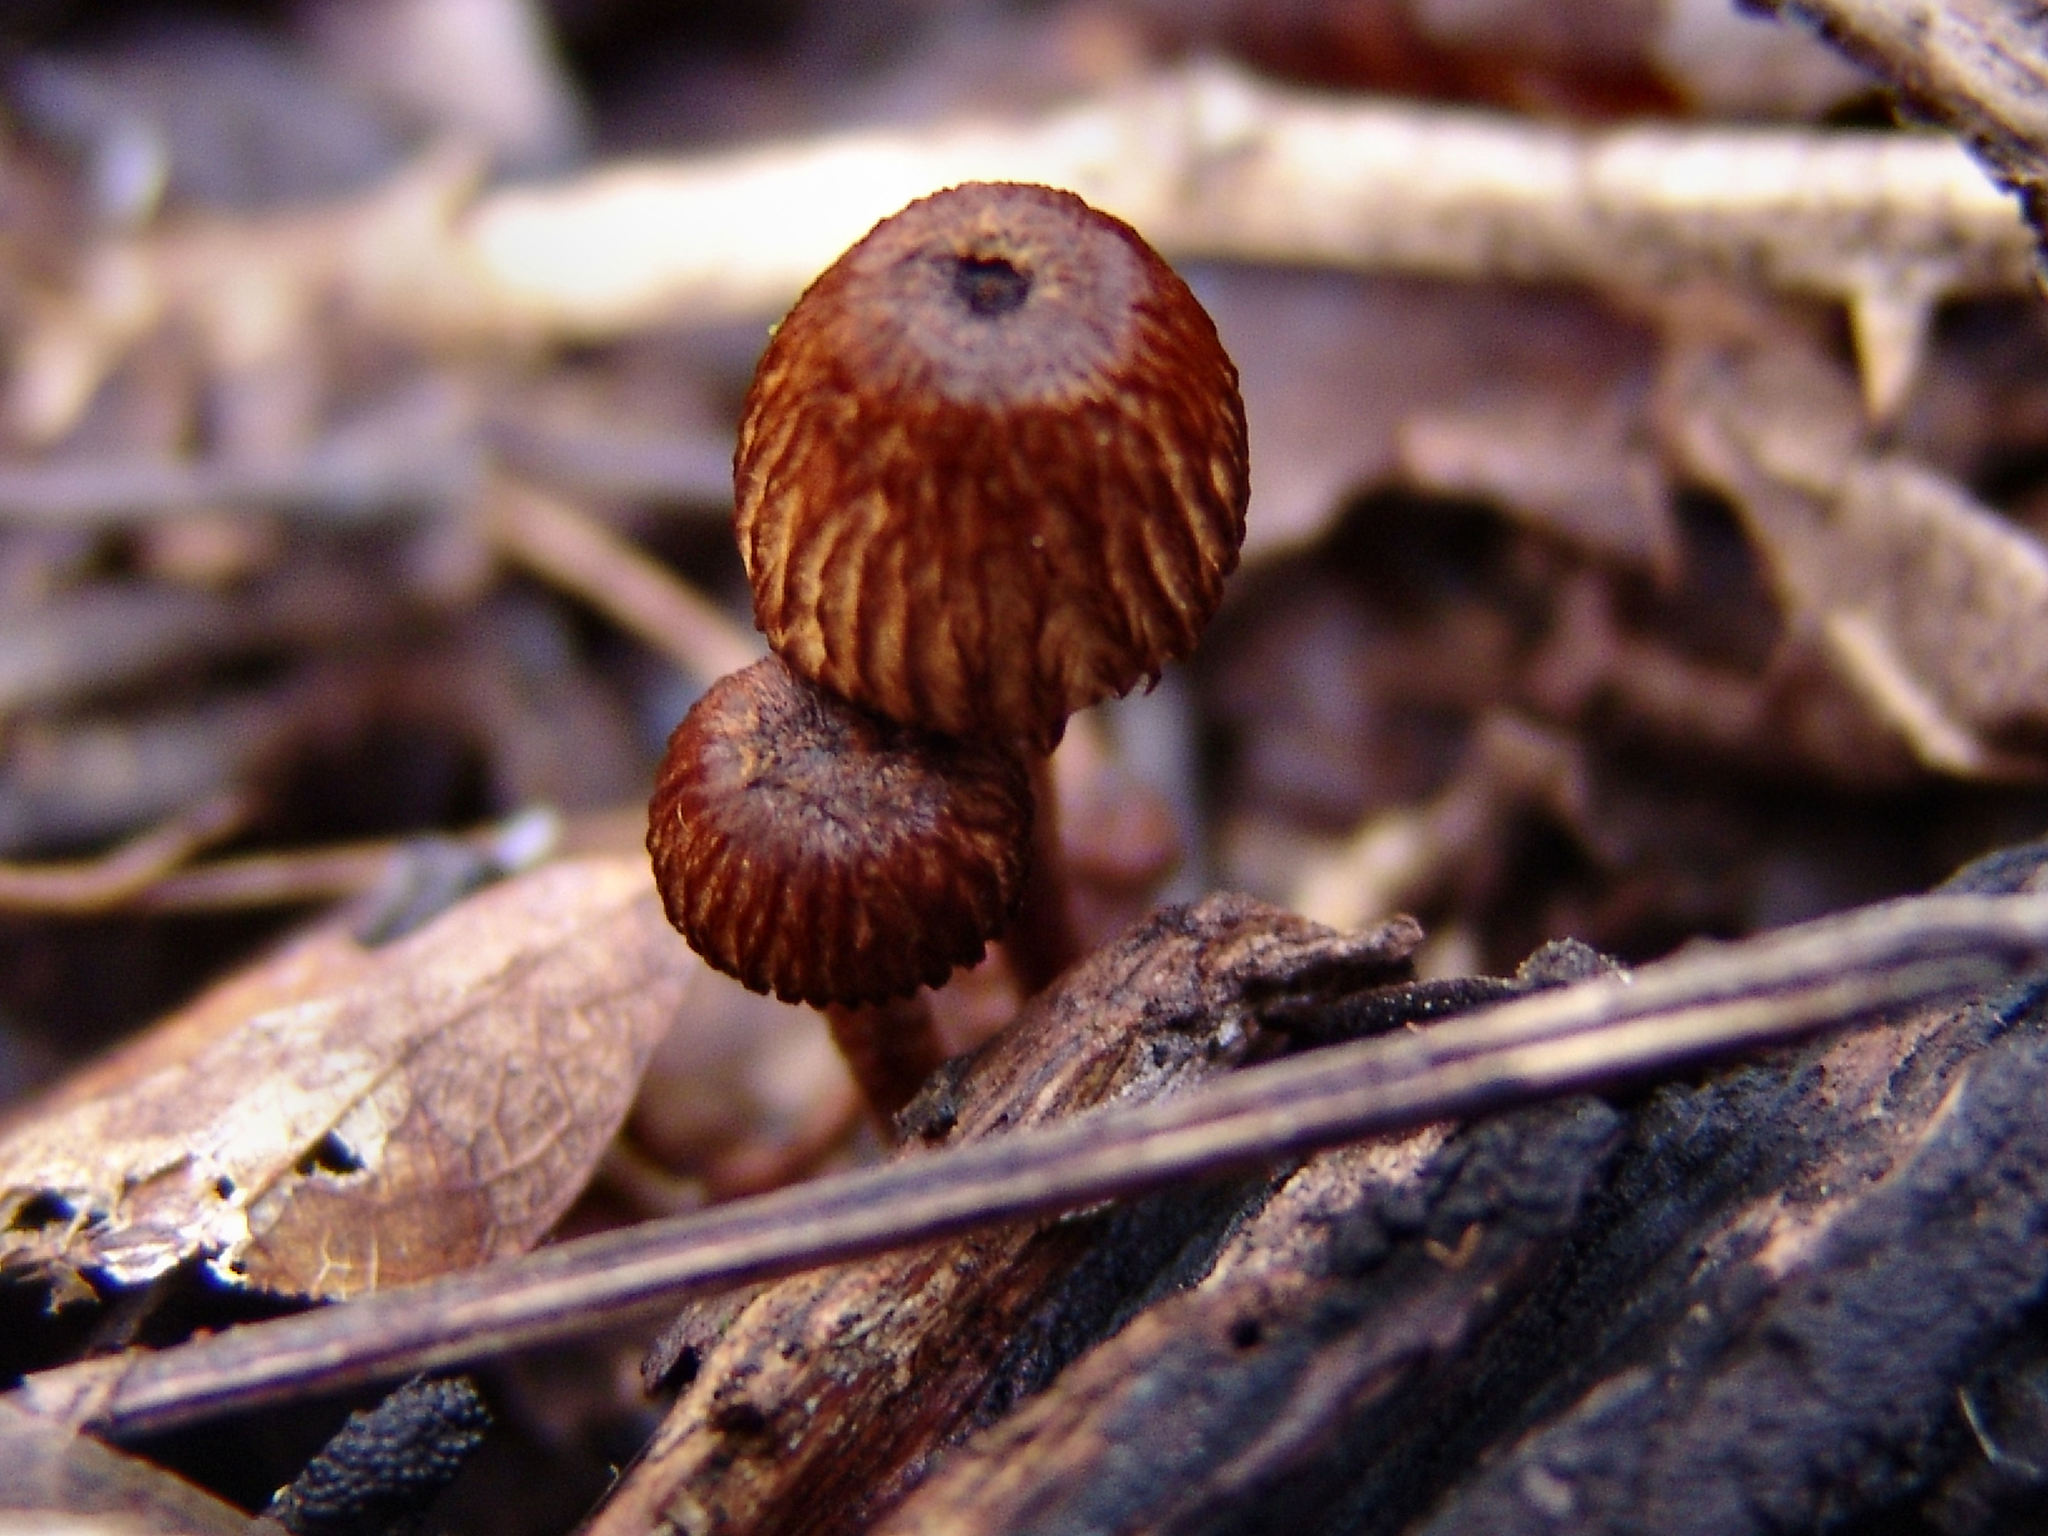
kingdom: Fungi
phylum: Basidiomycota
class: Agaricomycetes
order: Agaricales
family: Tricholomataceae
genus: Collybia
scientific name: Collybia zonata
